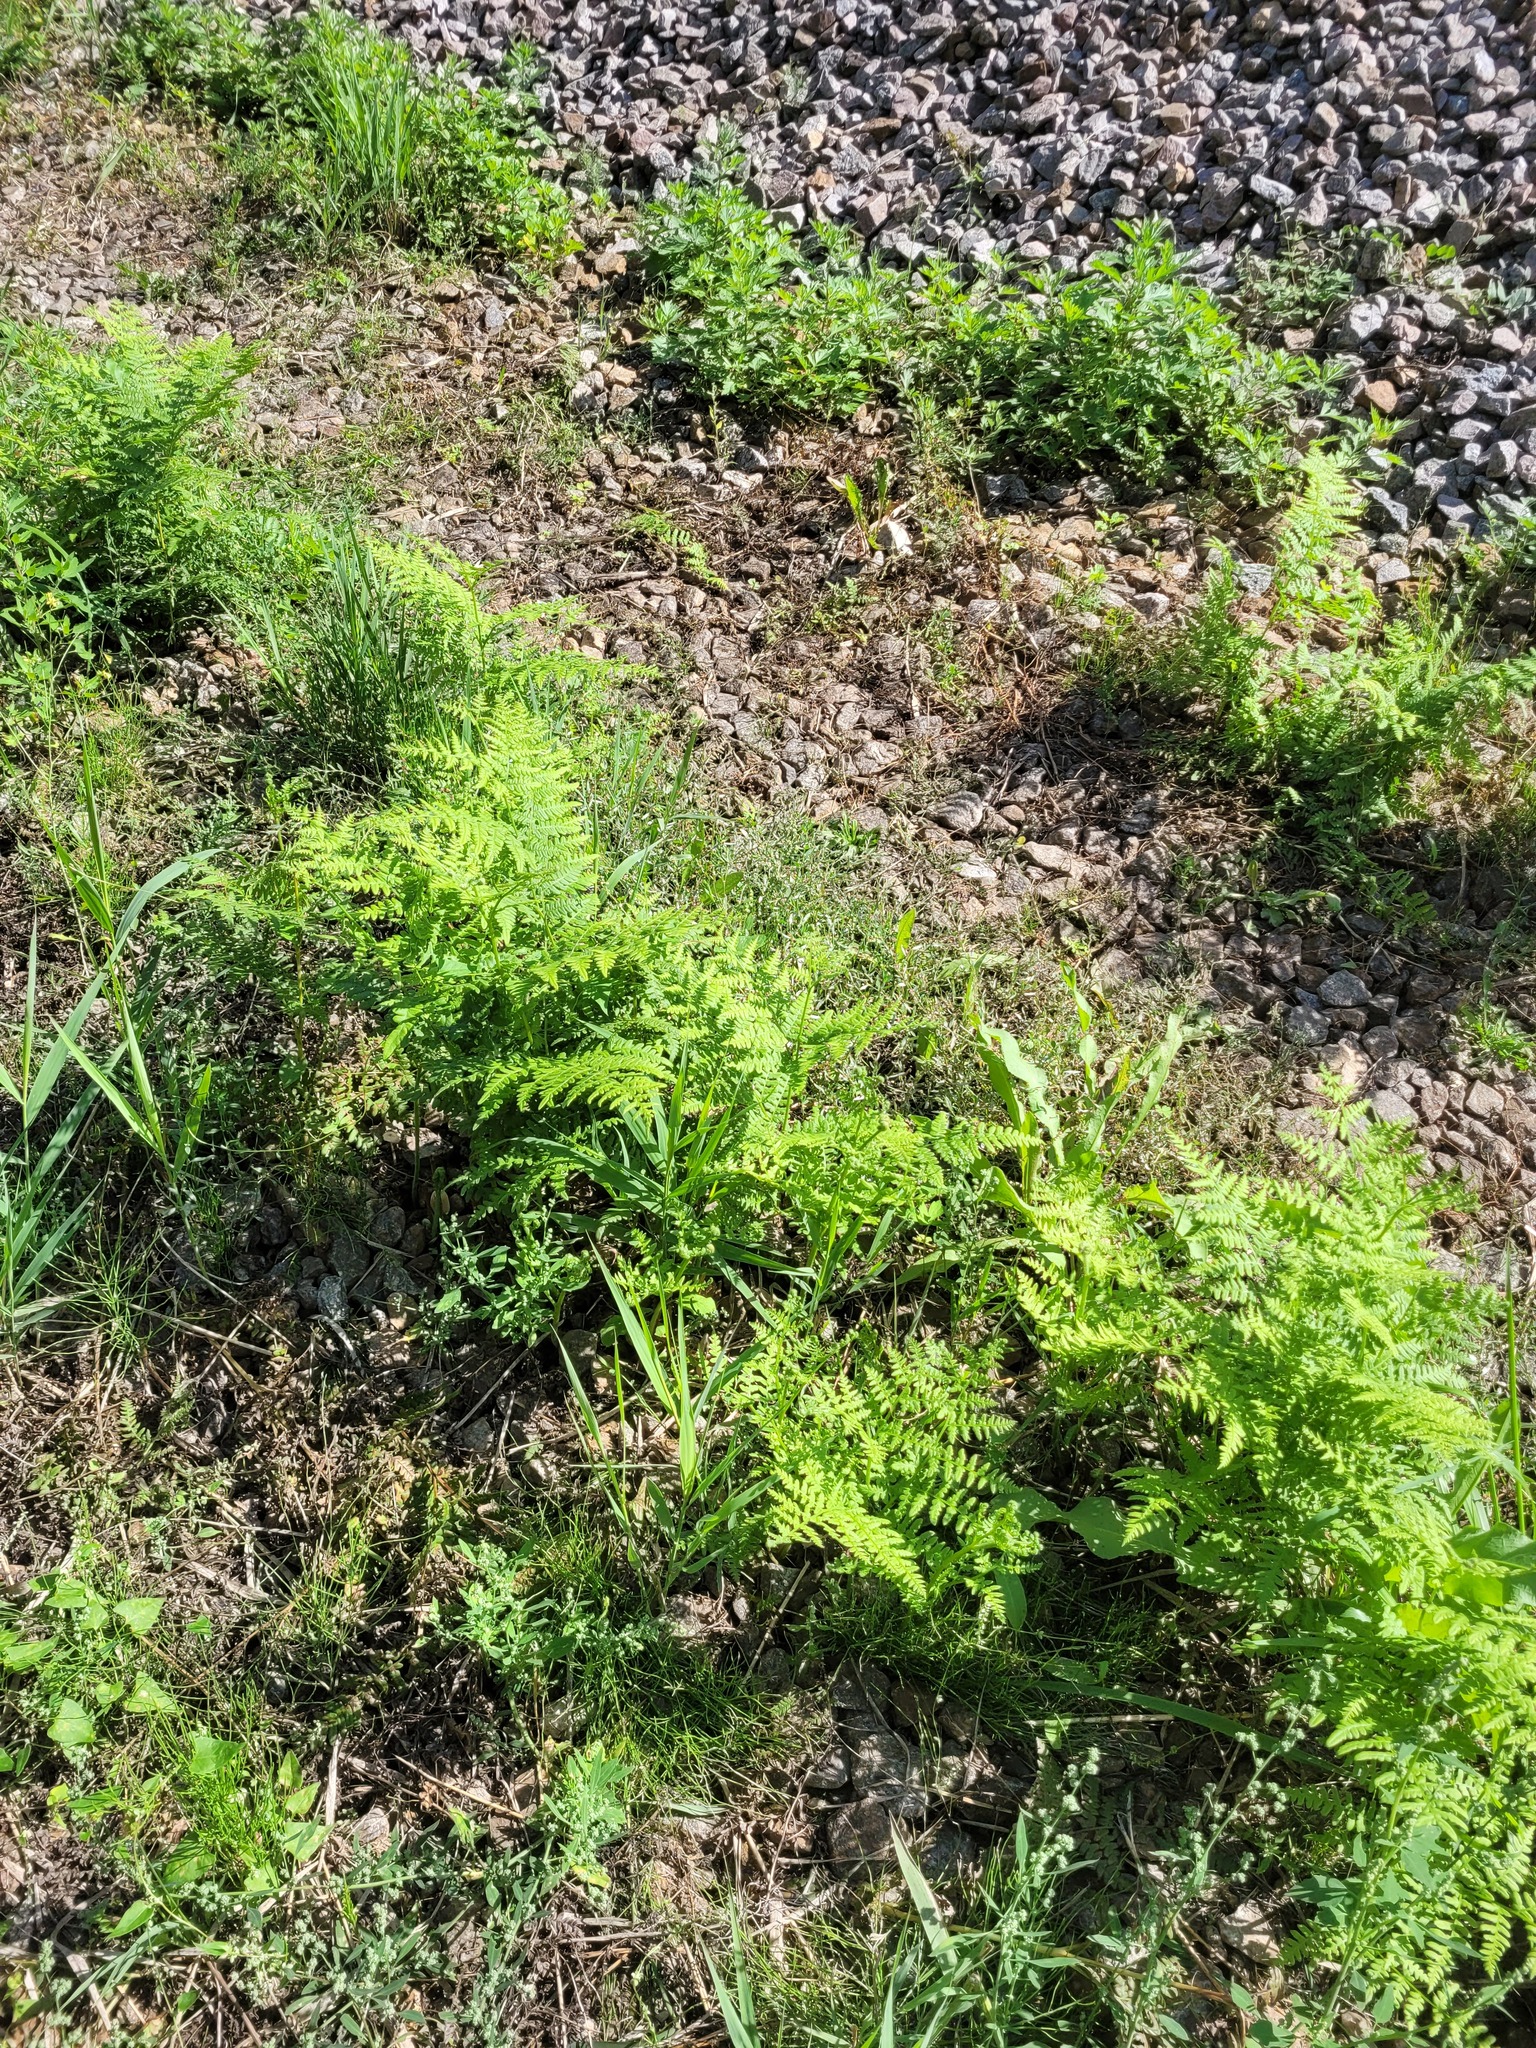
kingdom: Plantae
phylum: Tracheophyta
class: Polypodiopsida
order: Polypodiales
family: Dennstaedtiaceae
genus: Pteridium
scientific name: Pteridium aquilinum
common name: Bracken
